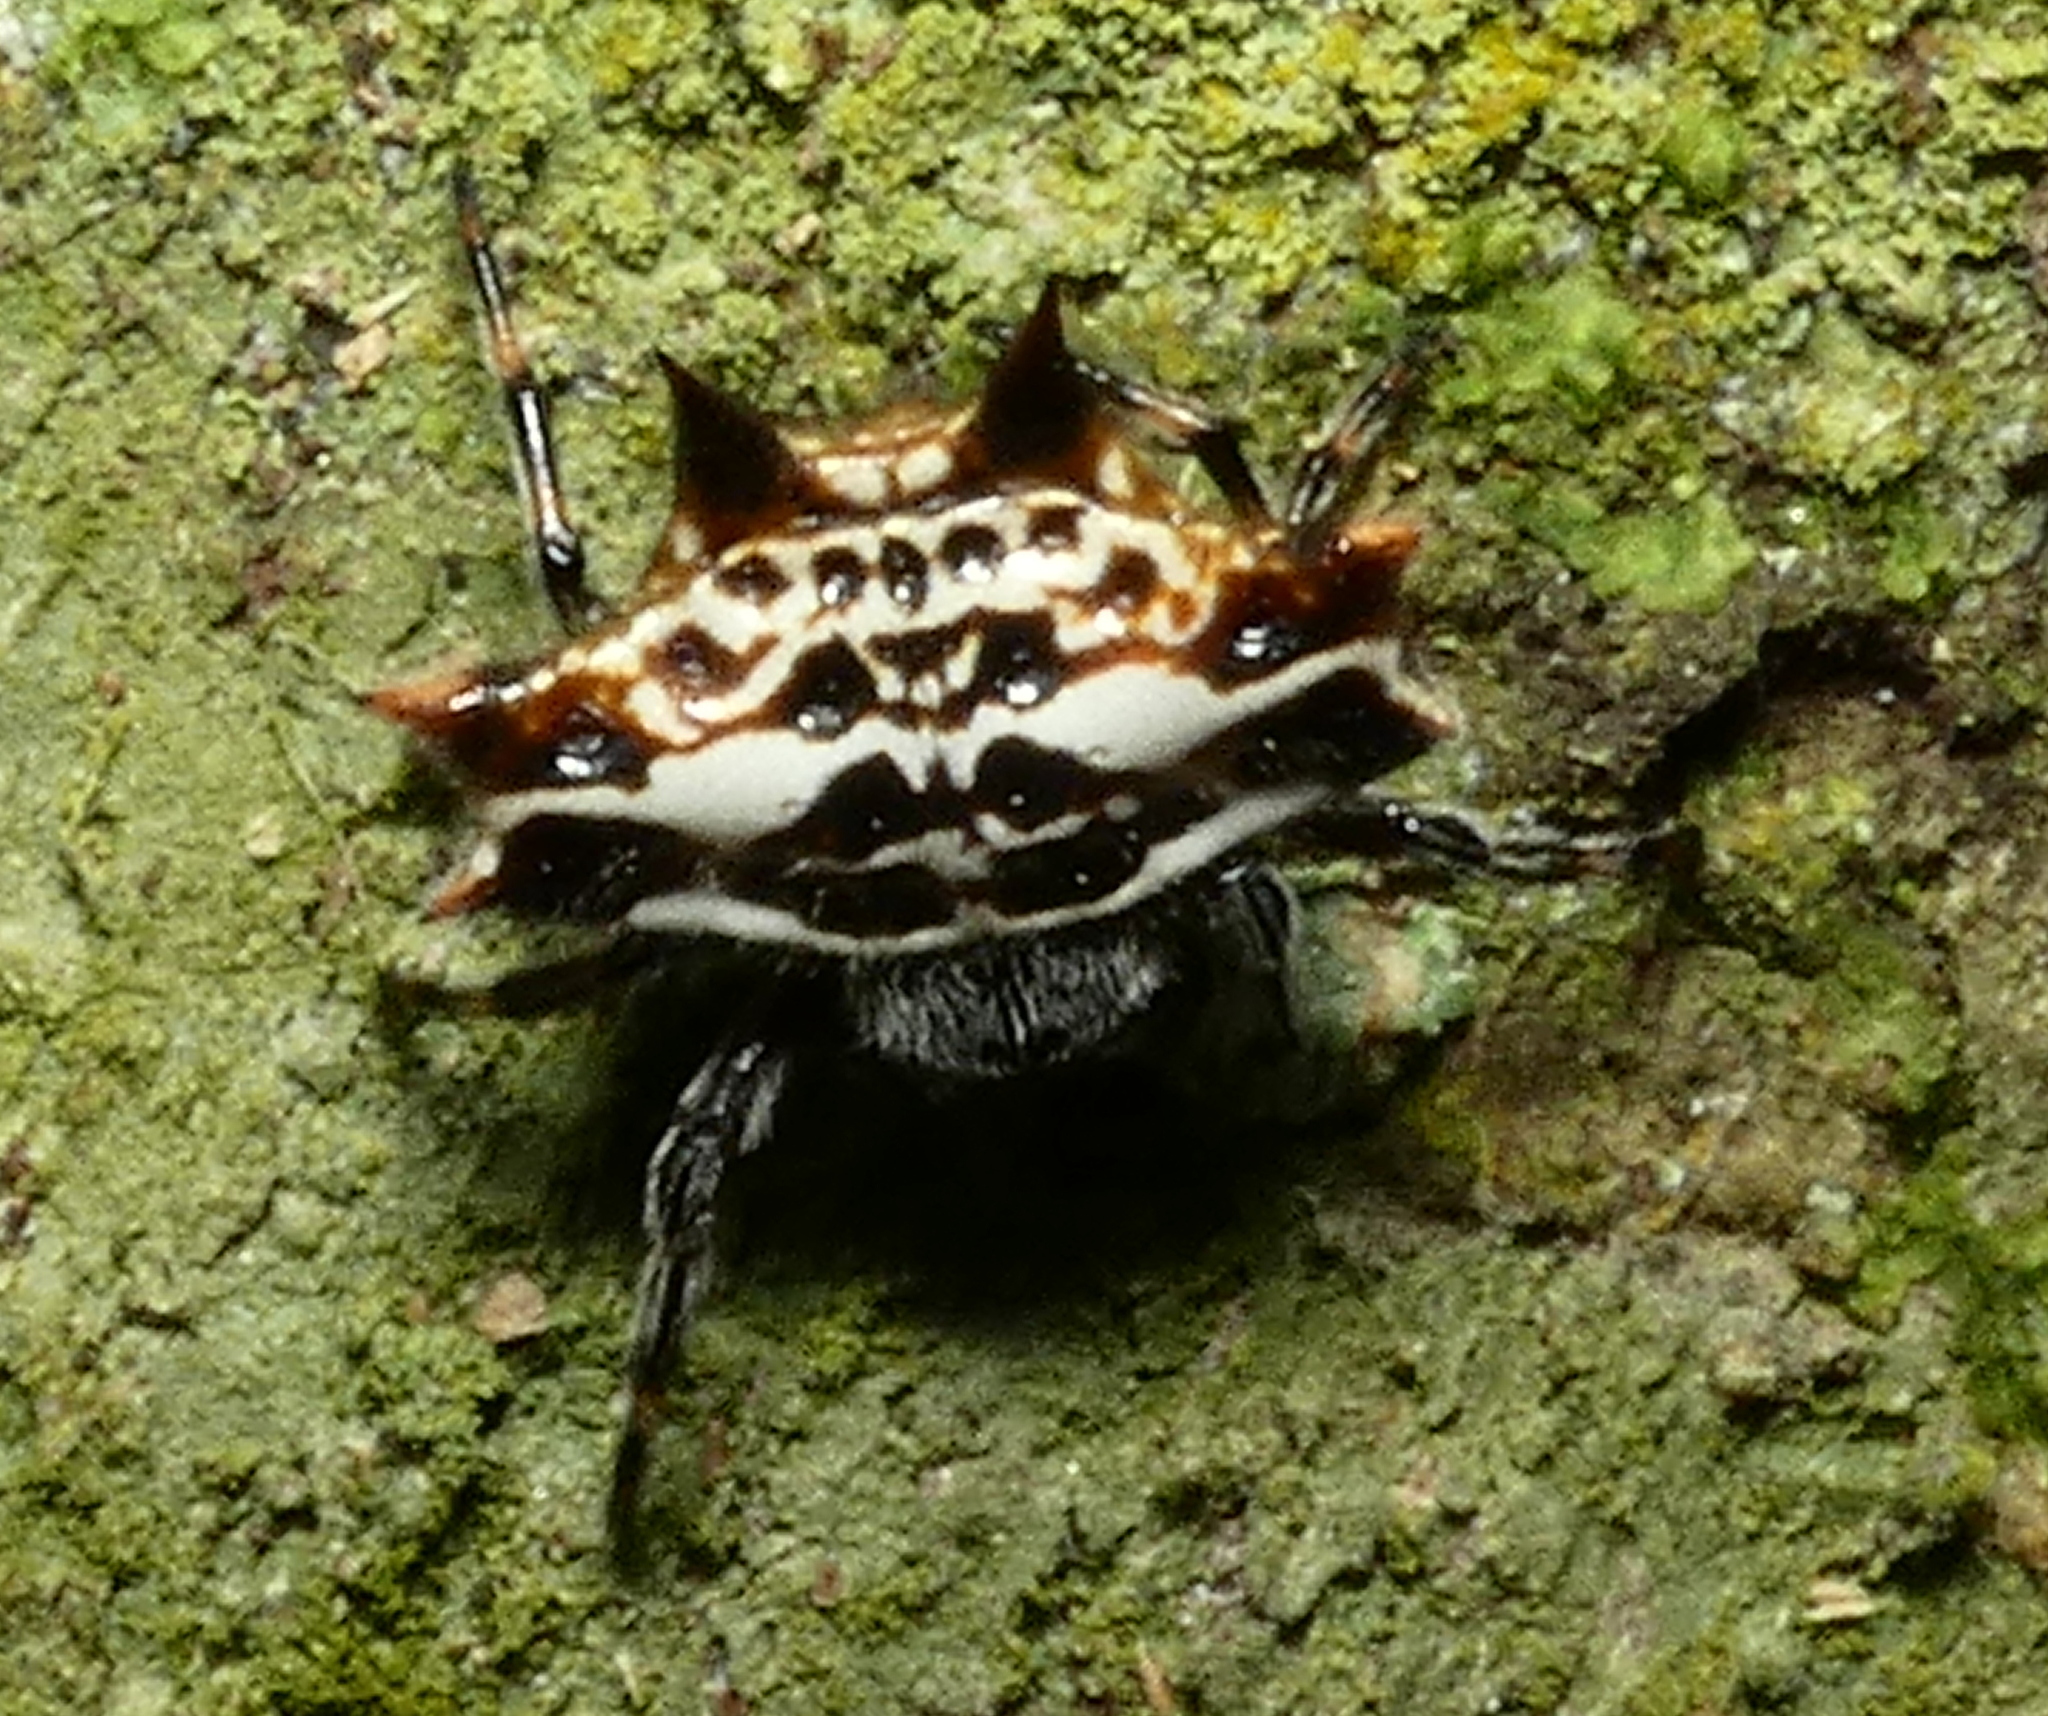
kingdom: Animalia
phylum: Arthropoda
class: Arachnida
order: Araneae
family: Araneidae
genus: Gasteracantha
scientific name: Gasteracantha cancriformis
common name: Orb weavers
